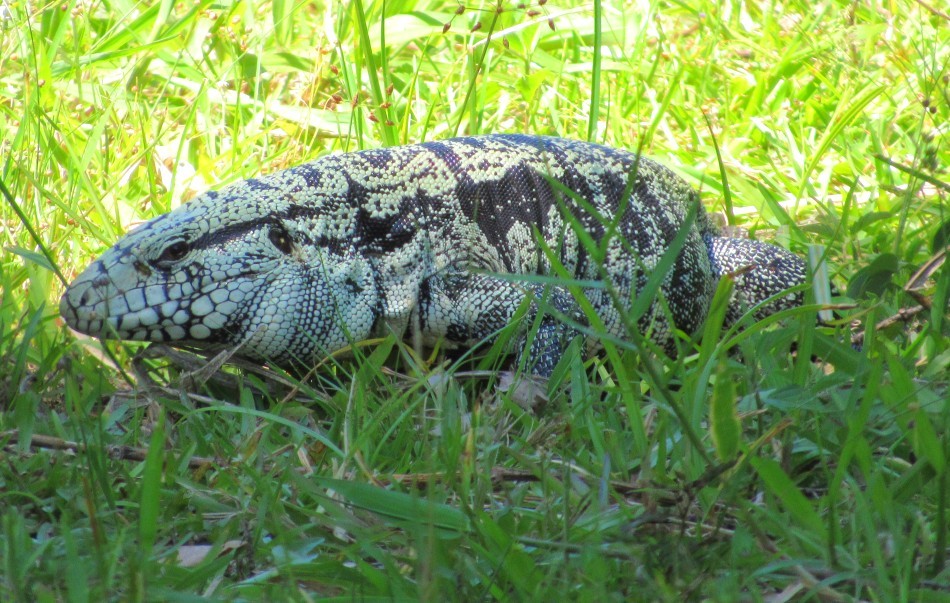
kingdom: Animalia
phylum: Chordata
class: Squamata
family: Teiidae
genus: Salvator
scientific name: Salvator merianae
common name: Argentine black and white tegu
